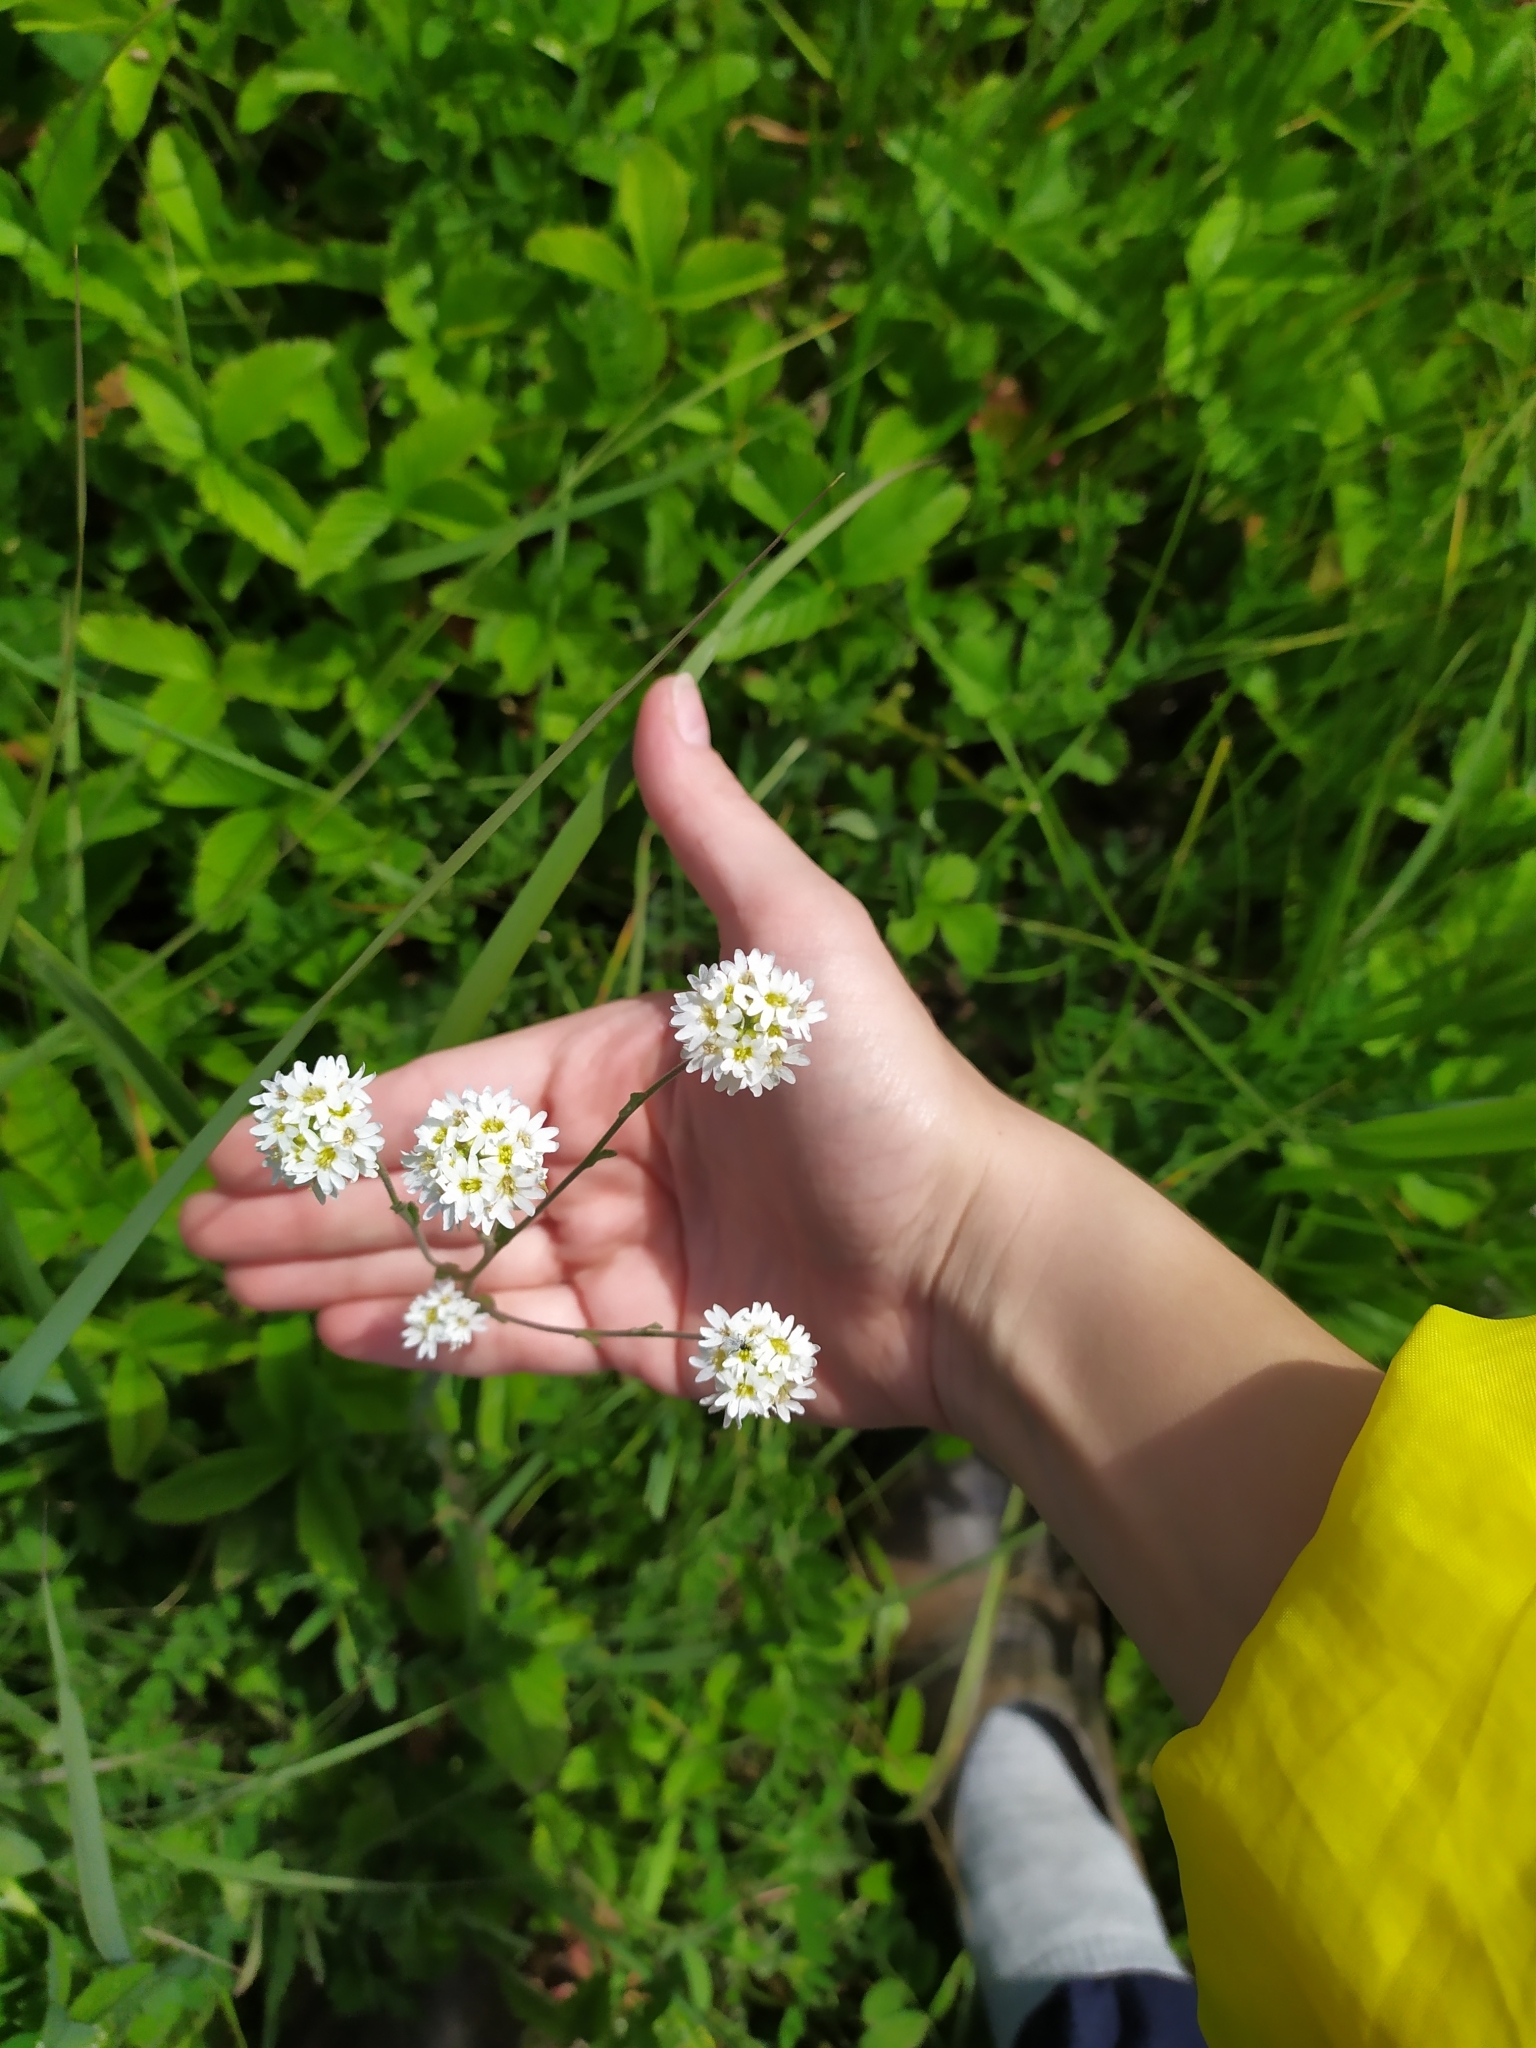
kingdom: Plantae
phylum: Tracheophyta
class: Magnoliopsida
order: Brassicales
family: Brassicaceae
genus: Berteroa
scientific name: Berteroa incana
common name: Hoary alison
